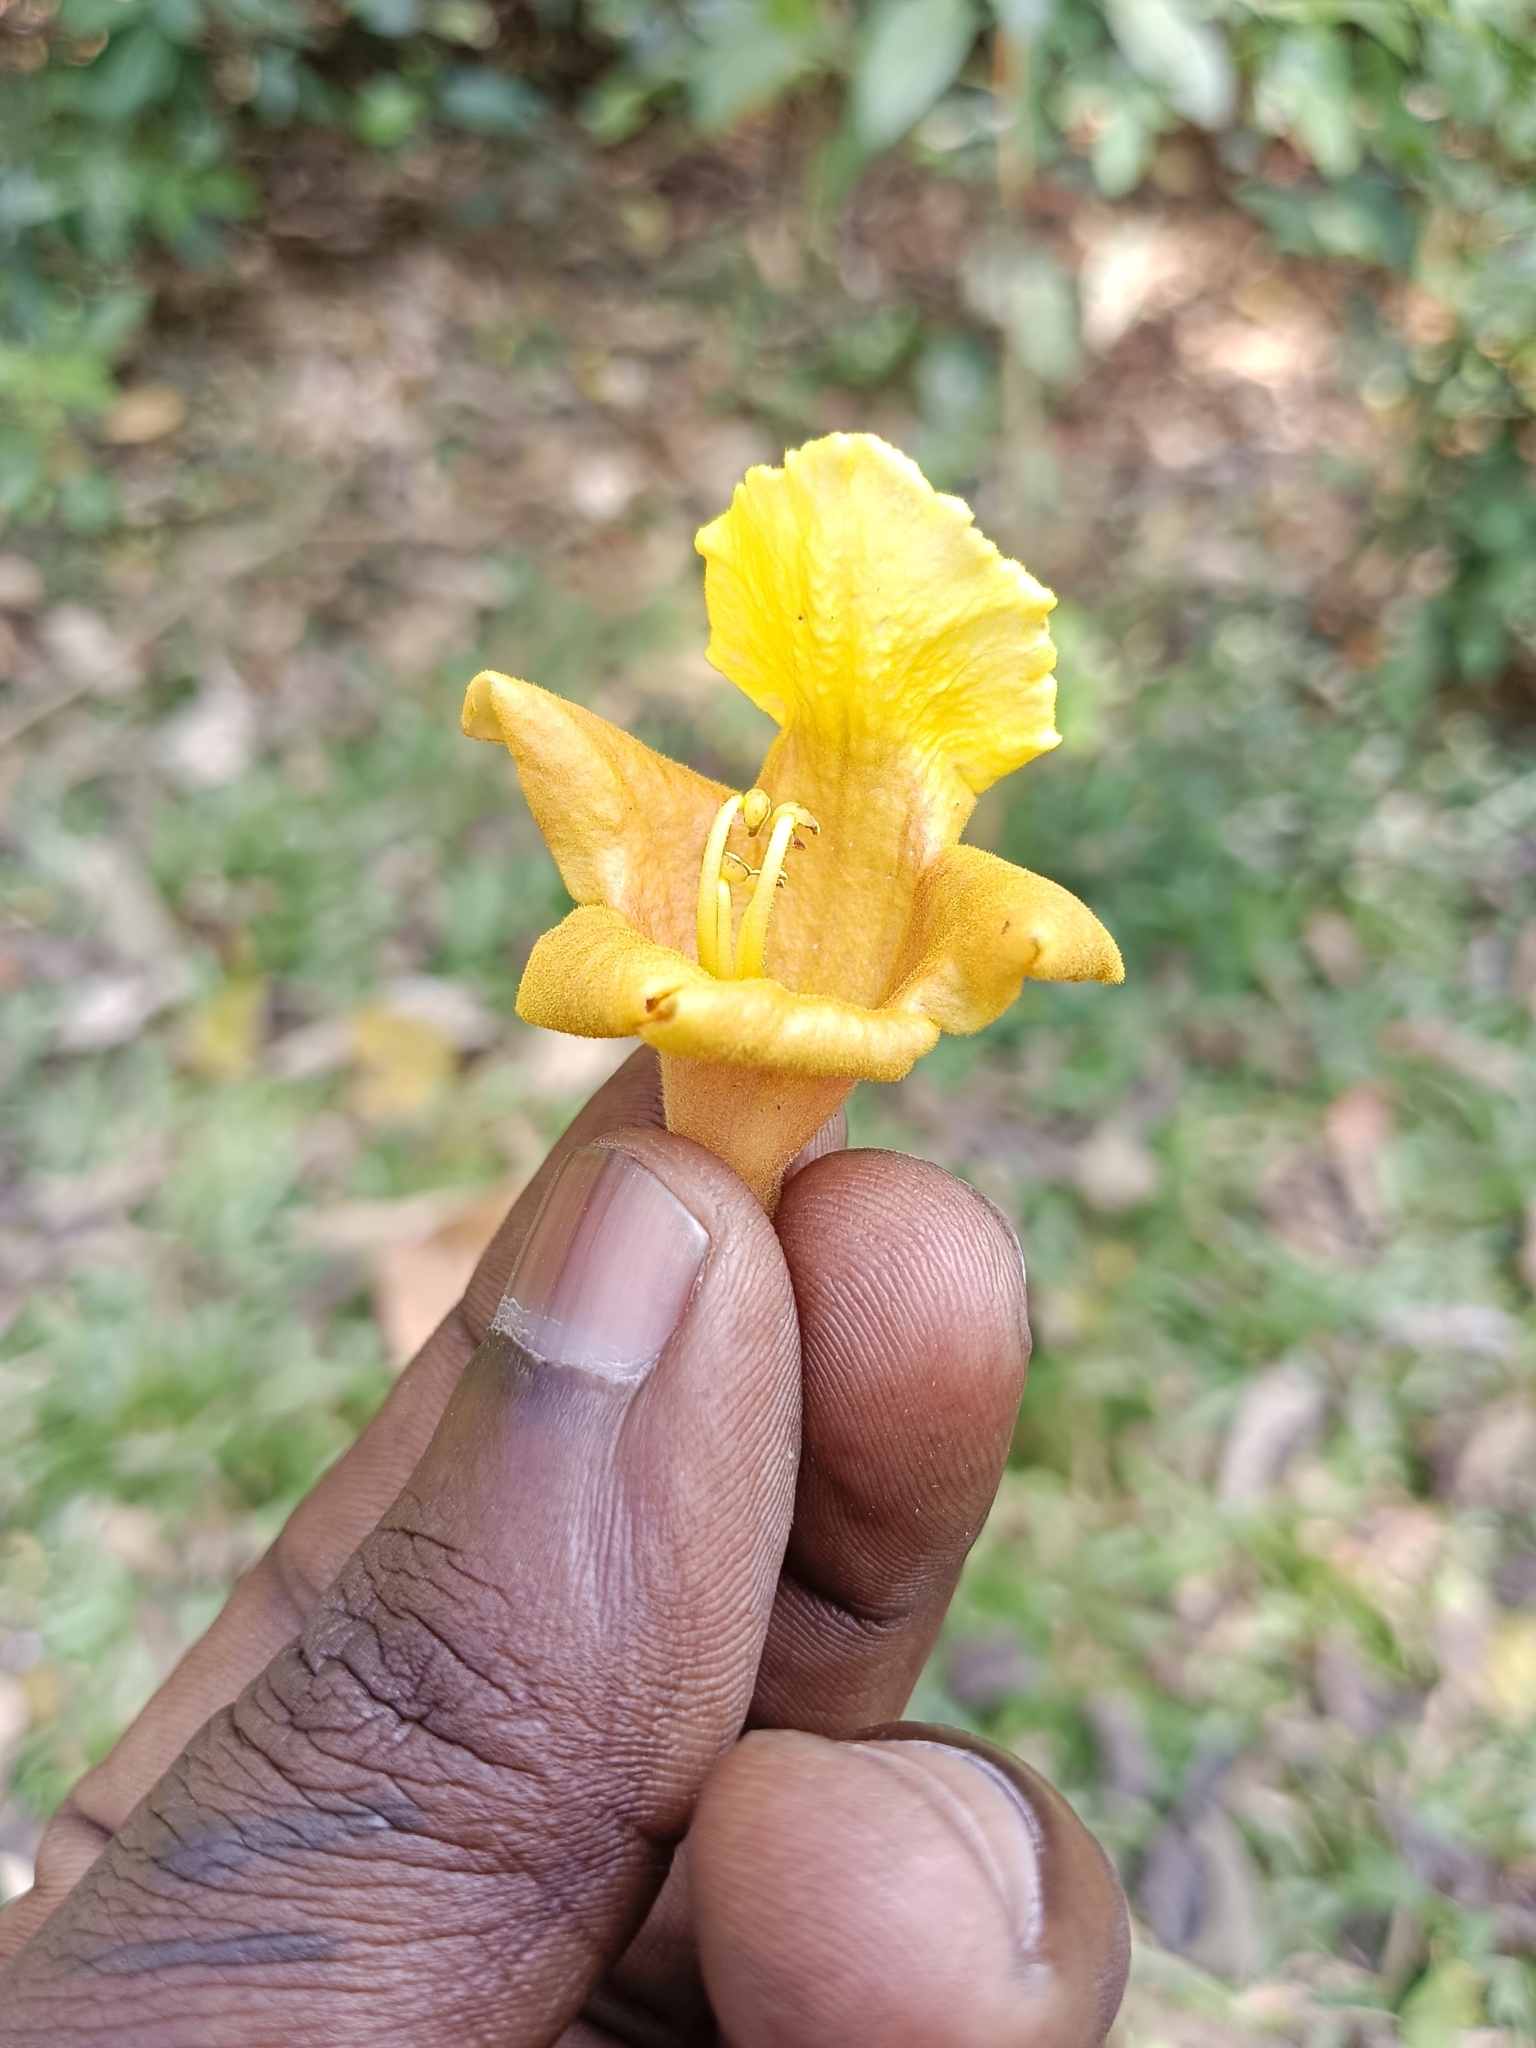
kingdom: Plantae
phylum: Tracheophyta
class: Magnoliopsida
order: Lamiales
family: Lamiaceae
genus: Gmelina
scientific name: Gmelina arborea
